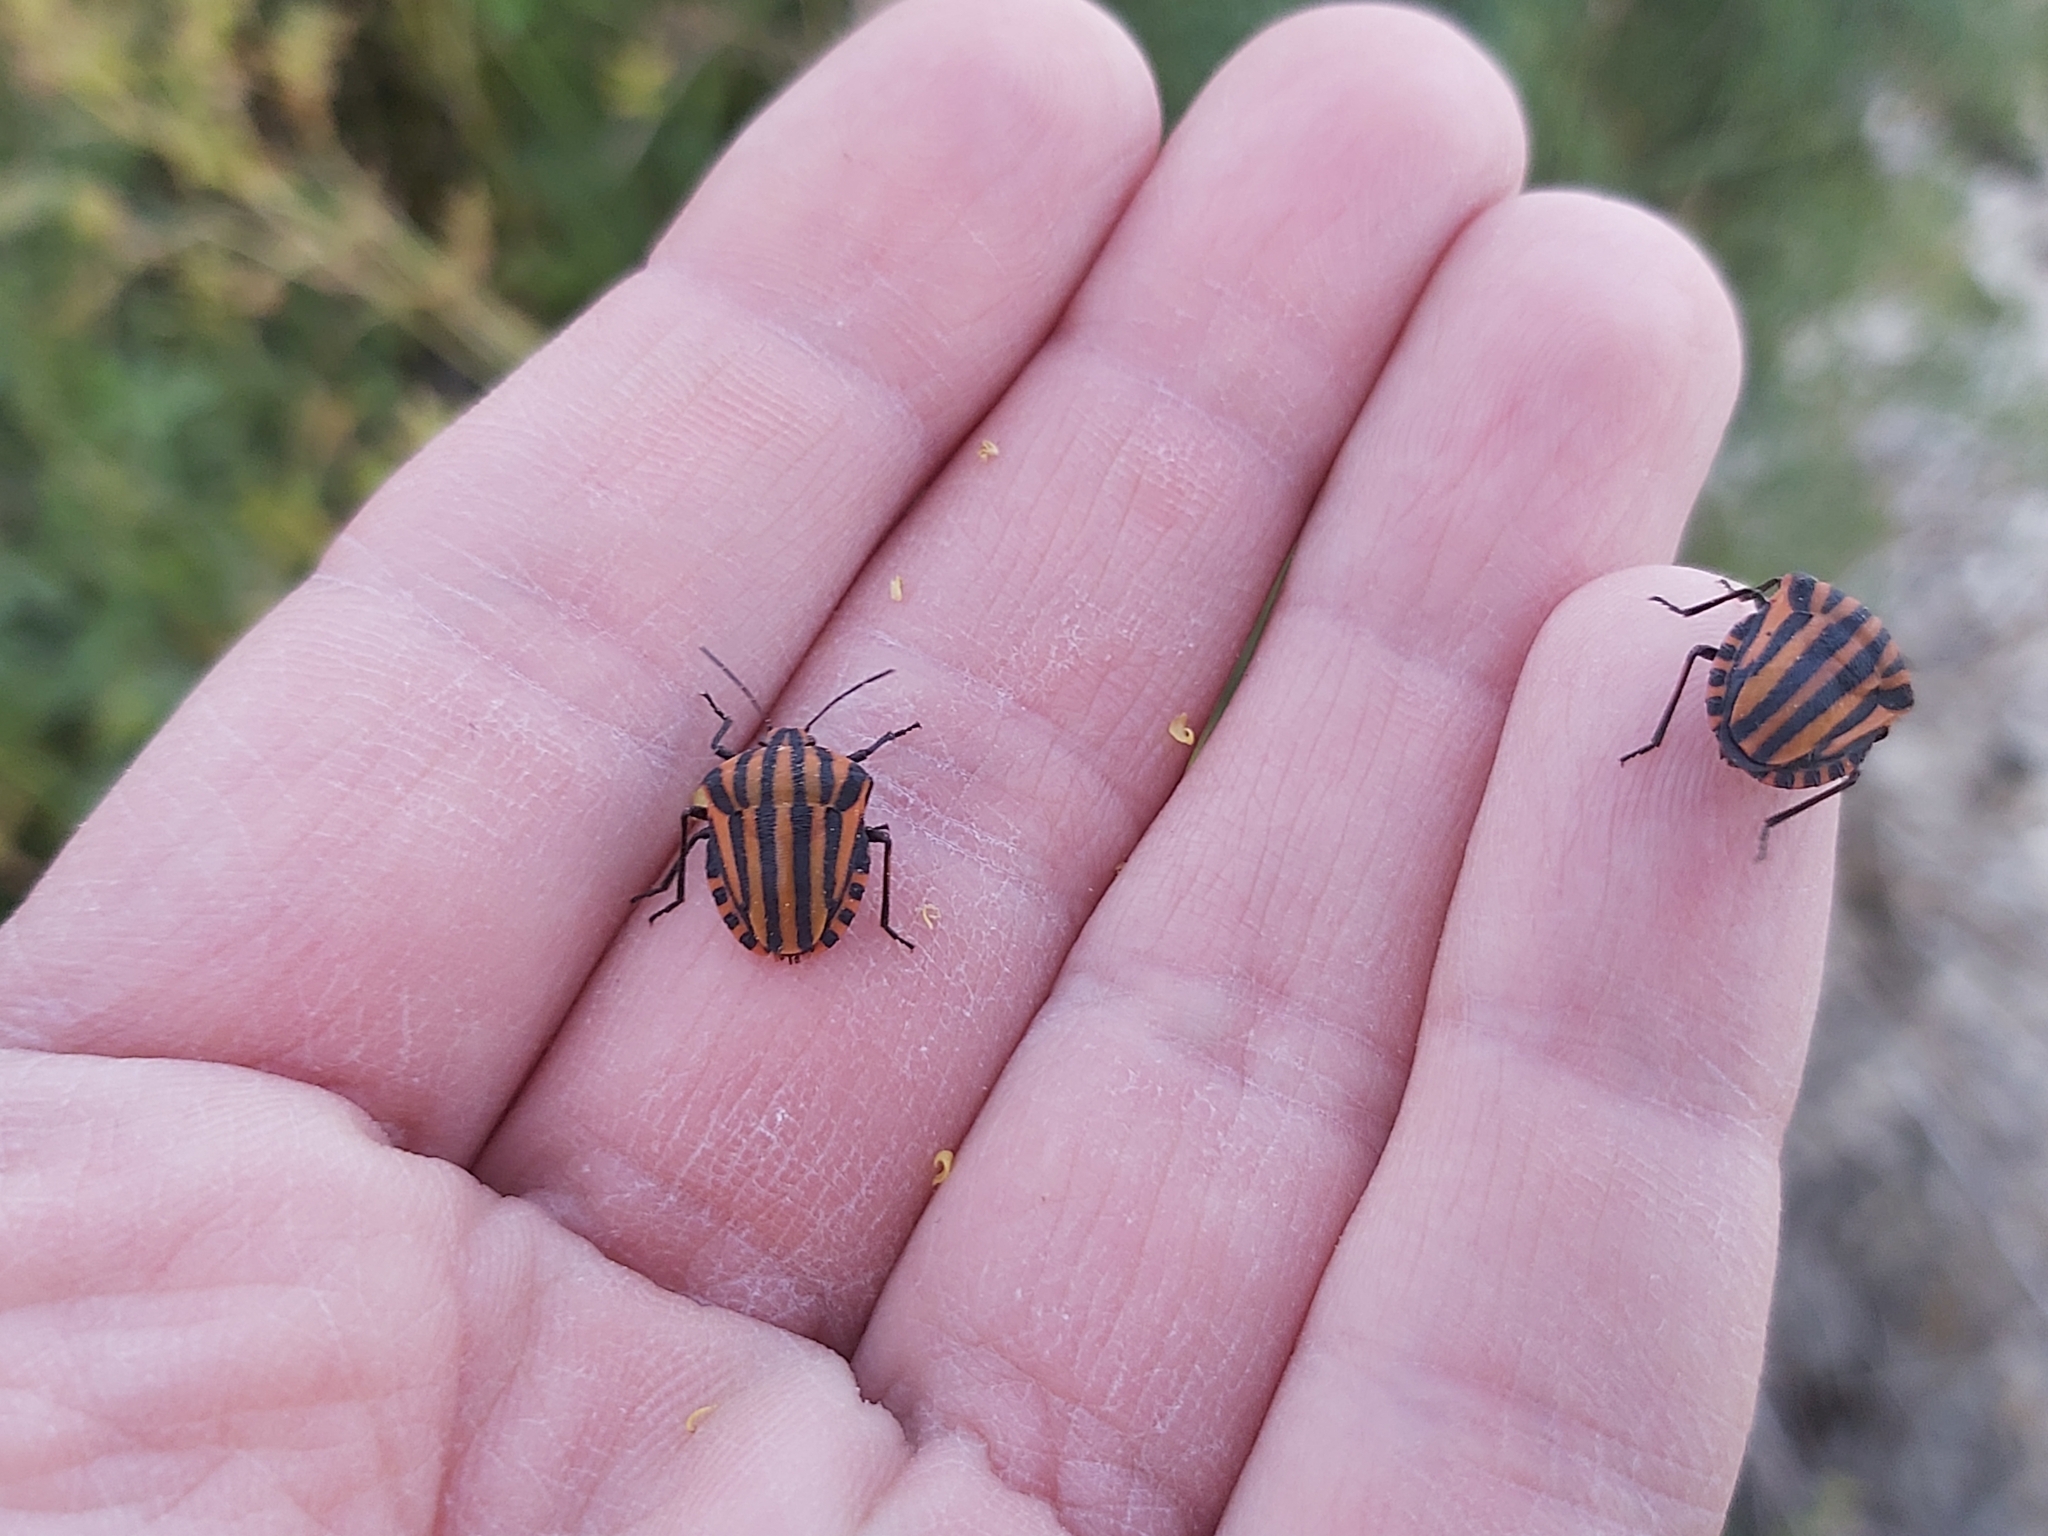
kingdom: Animalia
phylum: Arthropoda
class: Insecta
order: Hemiptera
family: Pentatomidae
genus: Graphosoma
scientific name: Graphosoma lineatum
